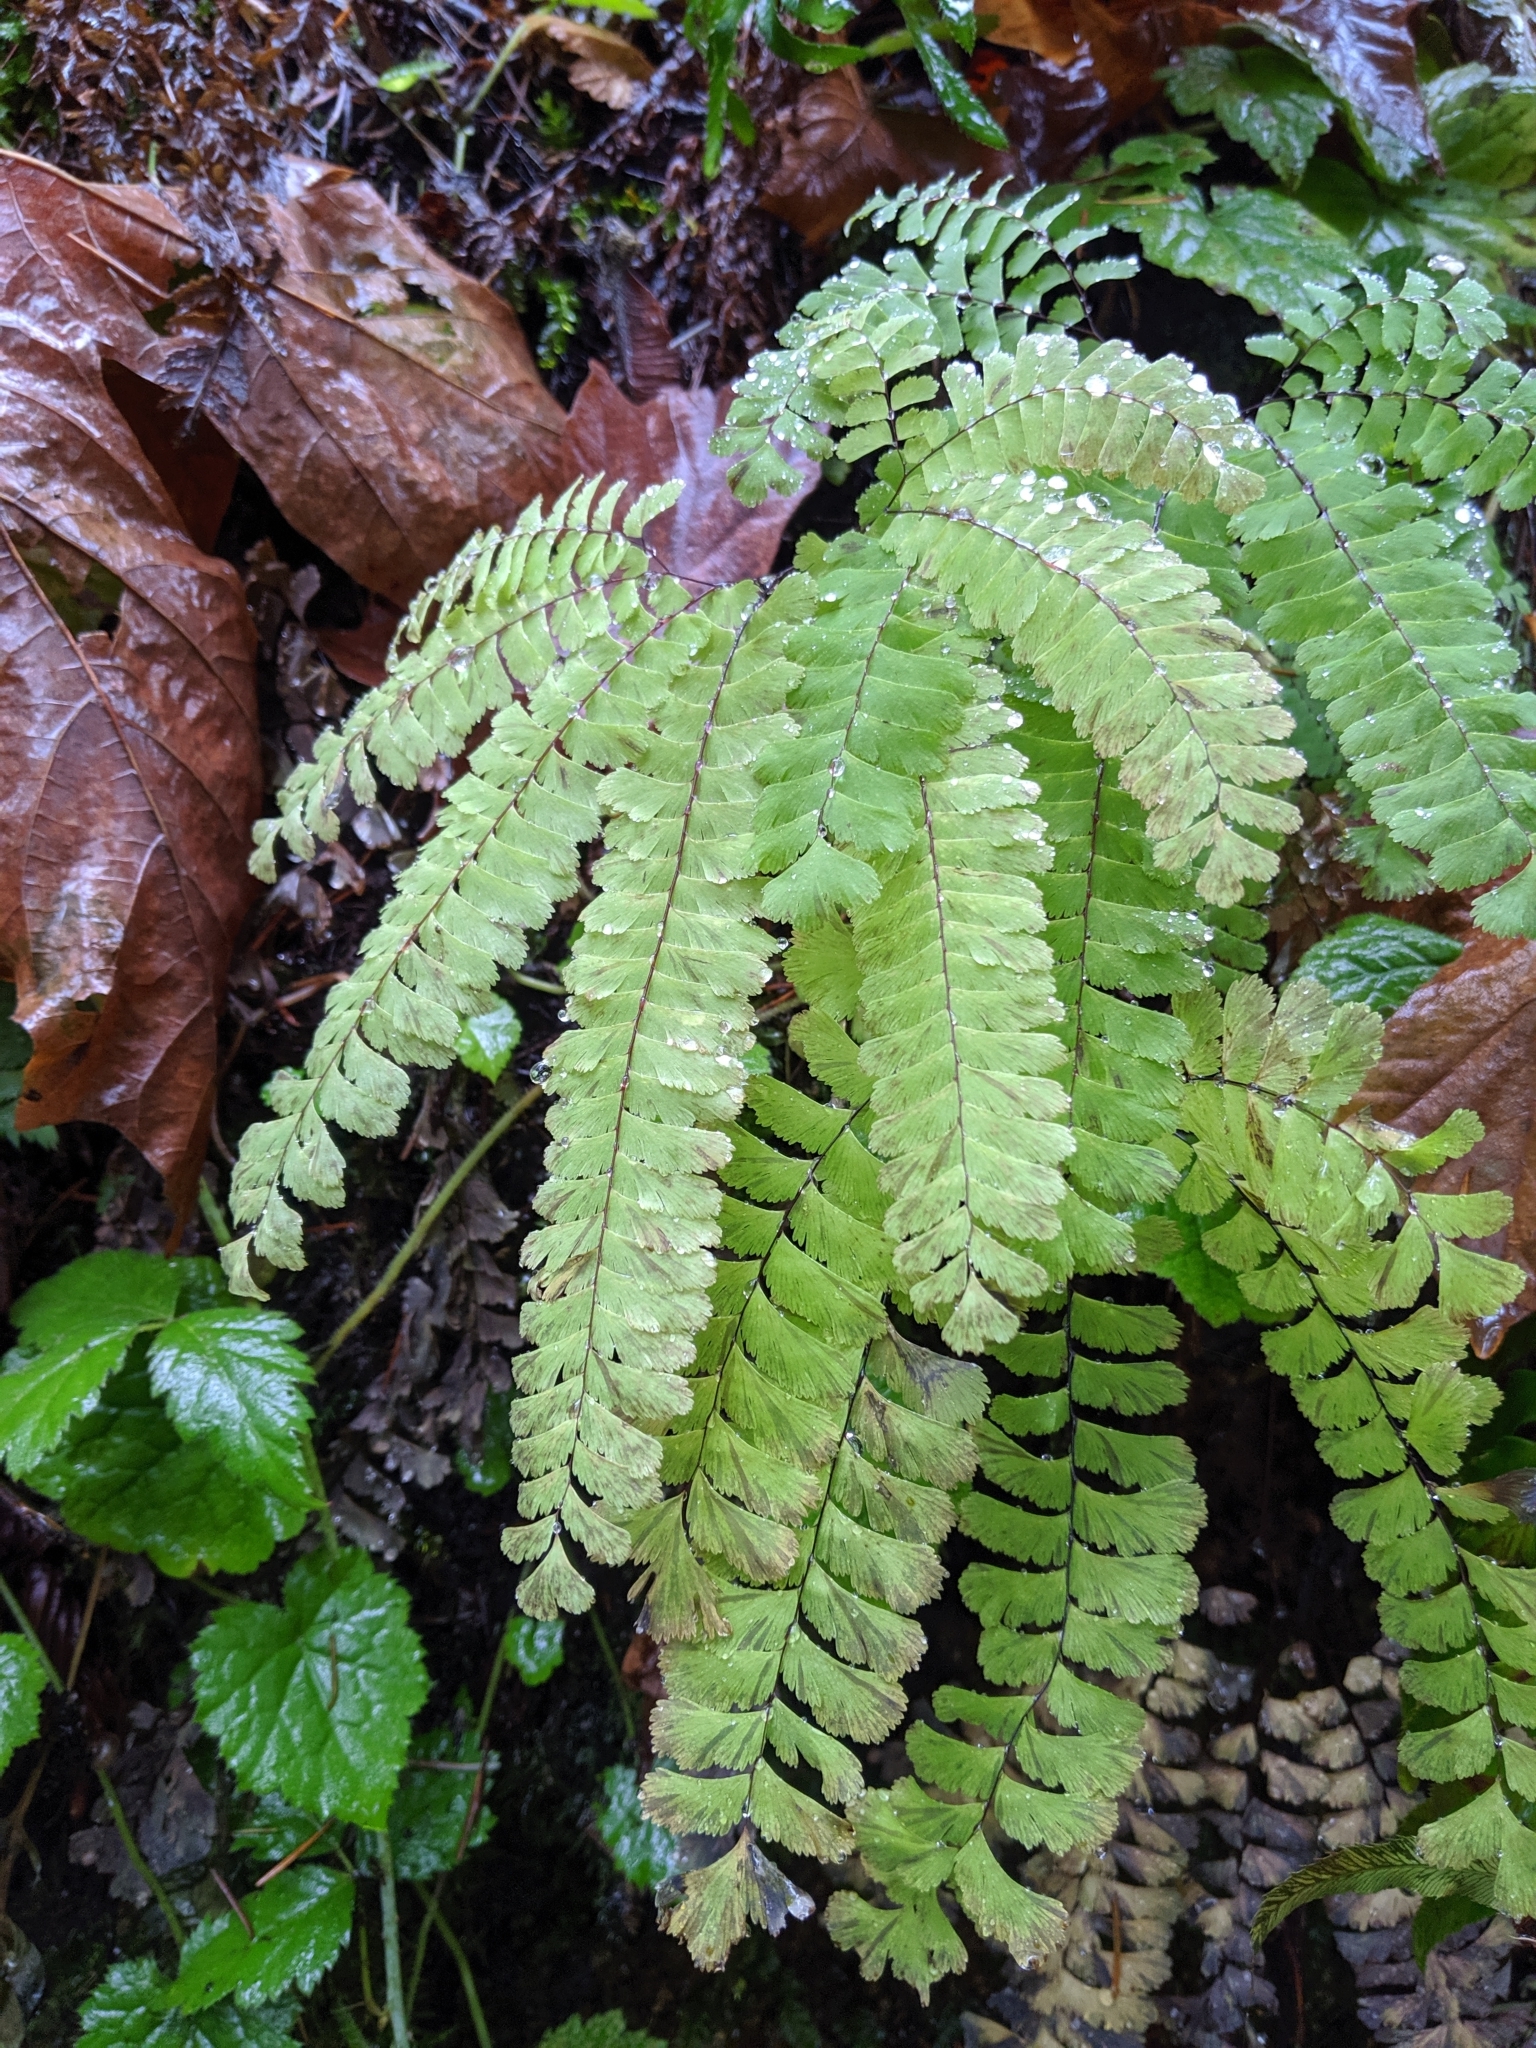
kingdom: Plantae
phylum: Tracheophyta
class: Polypodiopsida
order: Polypodiales
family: Pteridaceae
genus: Adiantum
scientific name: Adiantum aleuticum
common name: Aleutian maidenhair fern
